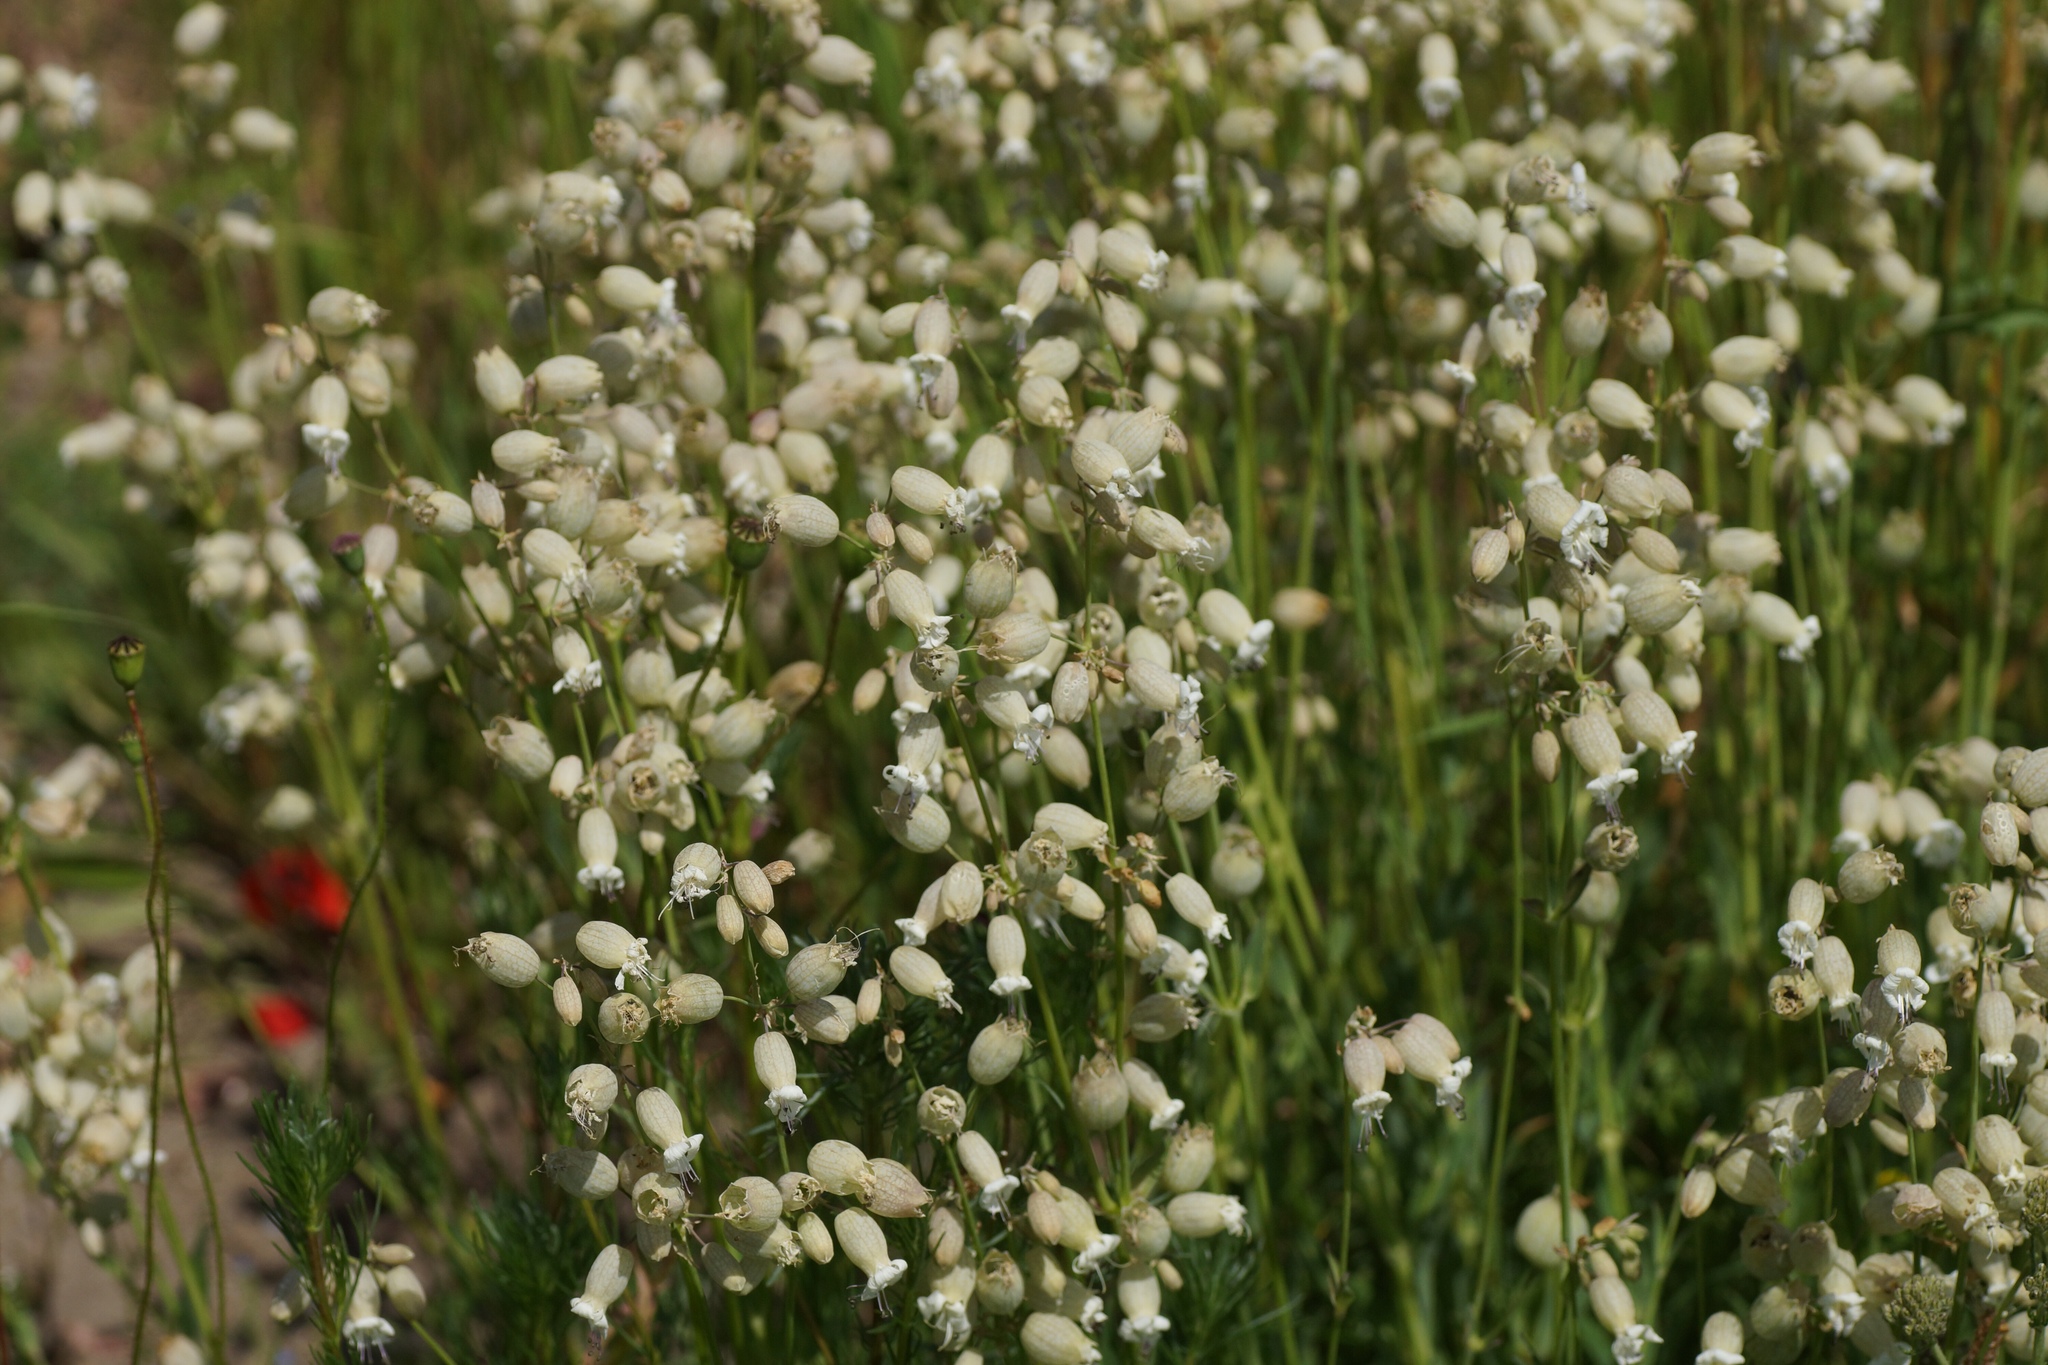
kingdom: Plantae
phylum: Tracheophyta
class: Magnoliopsida
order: Caryophyllales
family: Caryophyllaceae
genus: Silene
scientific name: Silene vulgaris
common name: Bladder campion
